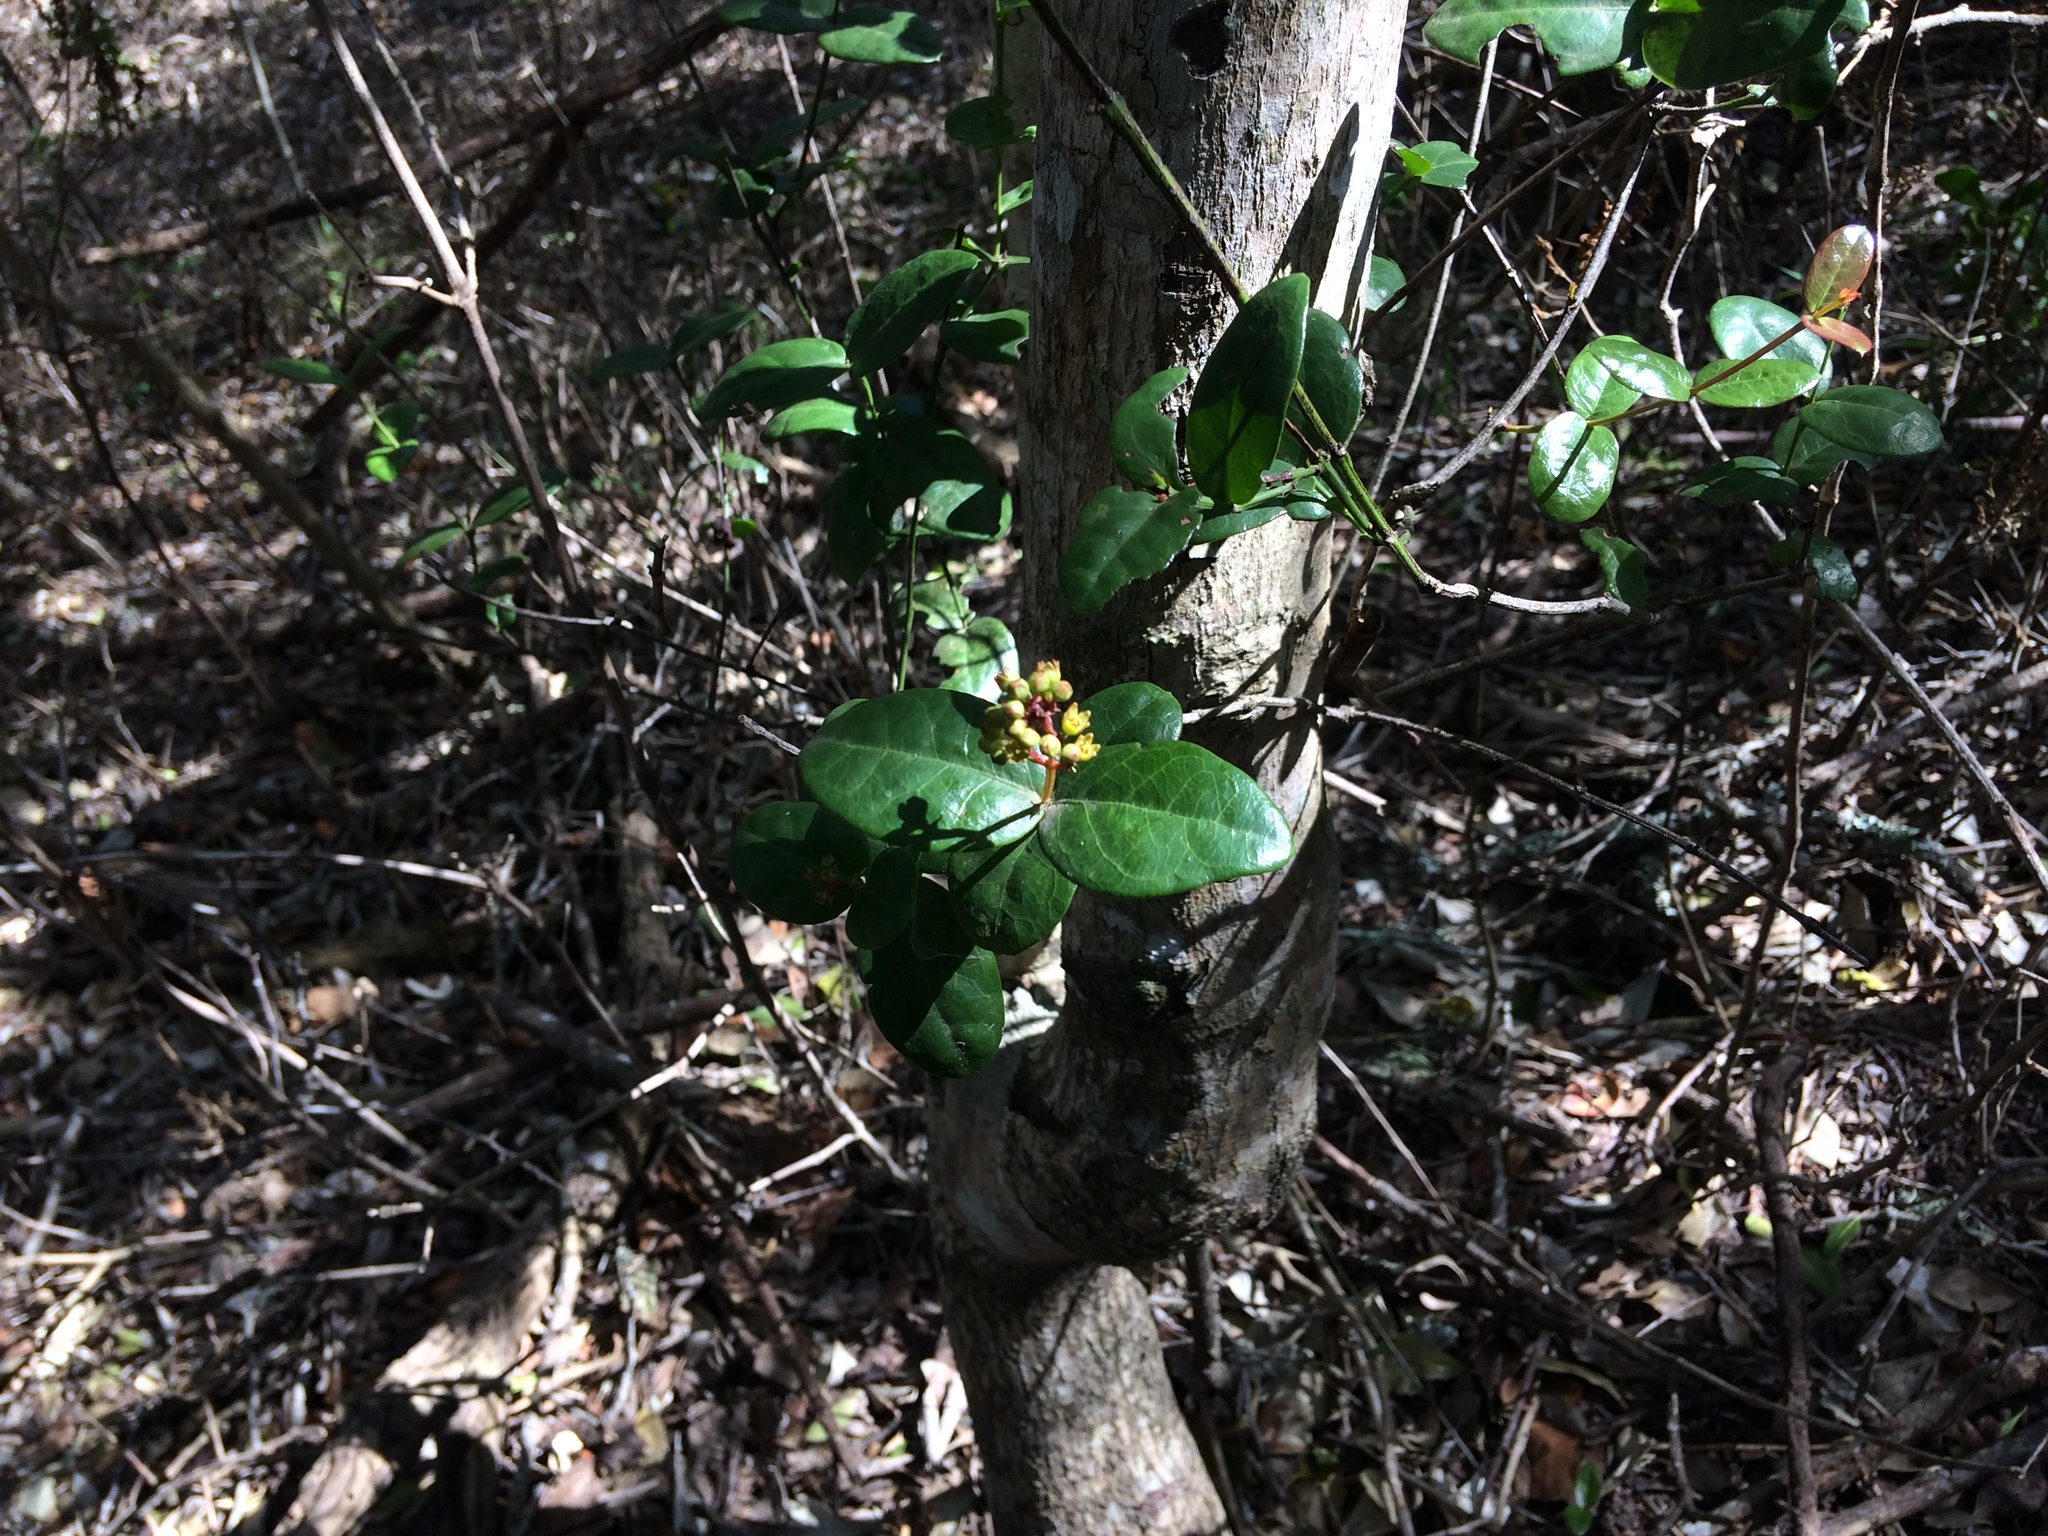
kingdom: Plantae
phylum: Tracheophyta
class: Magnoliopsida
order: Santalales
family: Santalaceae
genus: Rhoiacarpos
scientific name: Rhoiacarpos capensis
